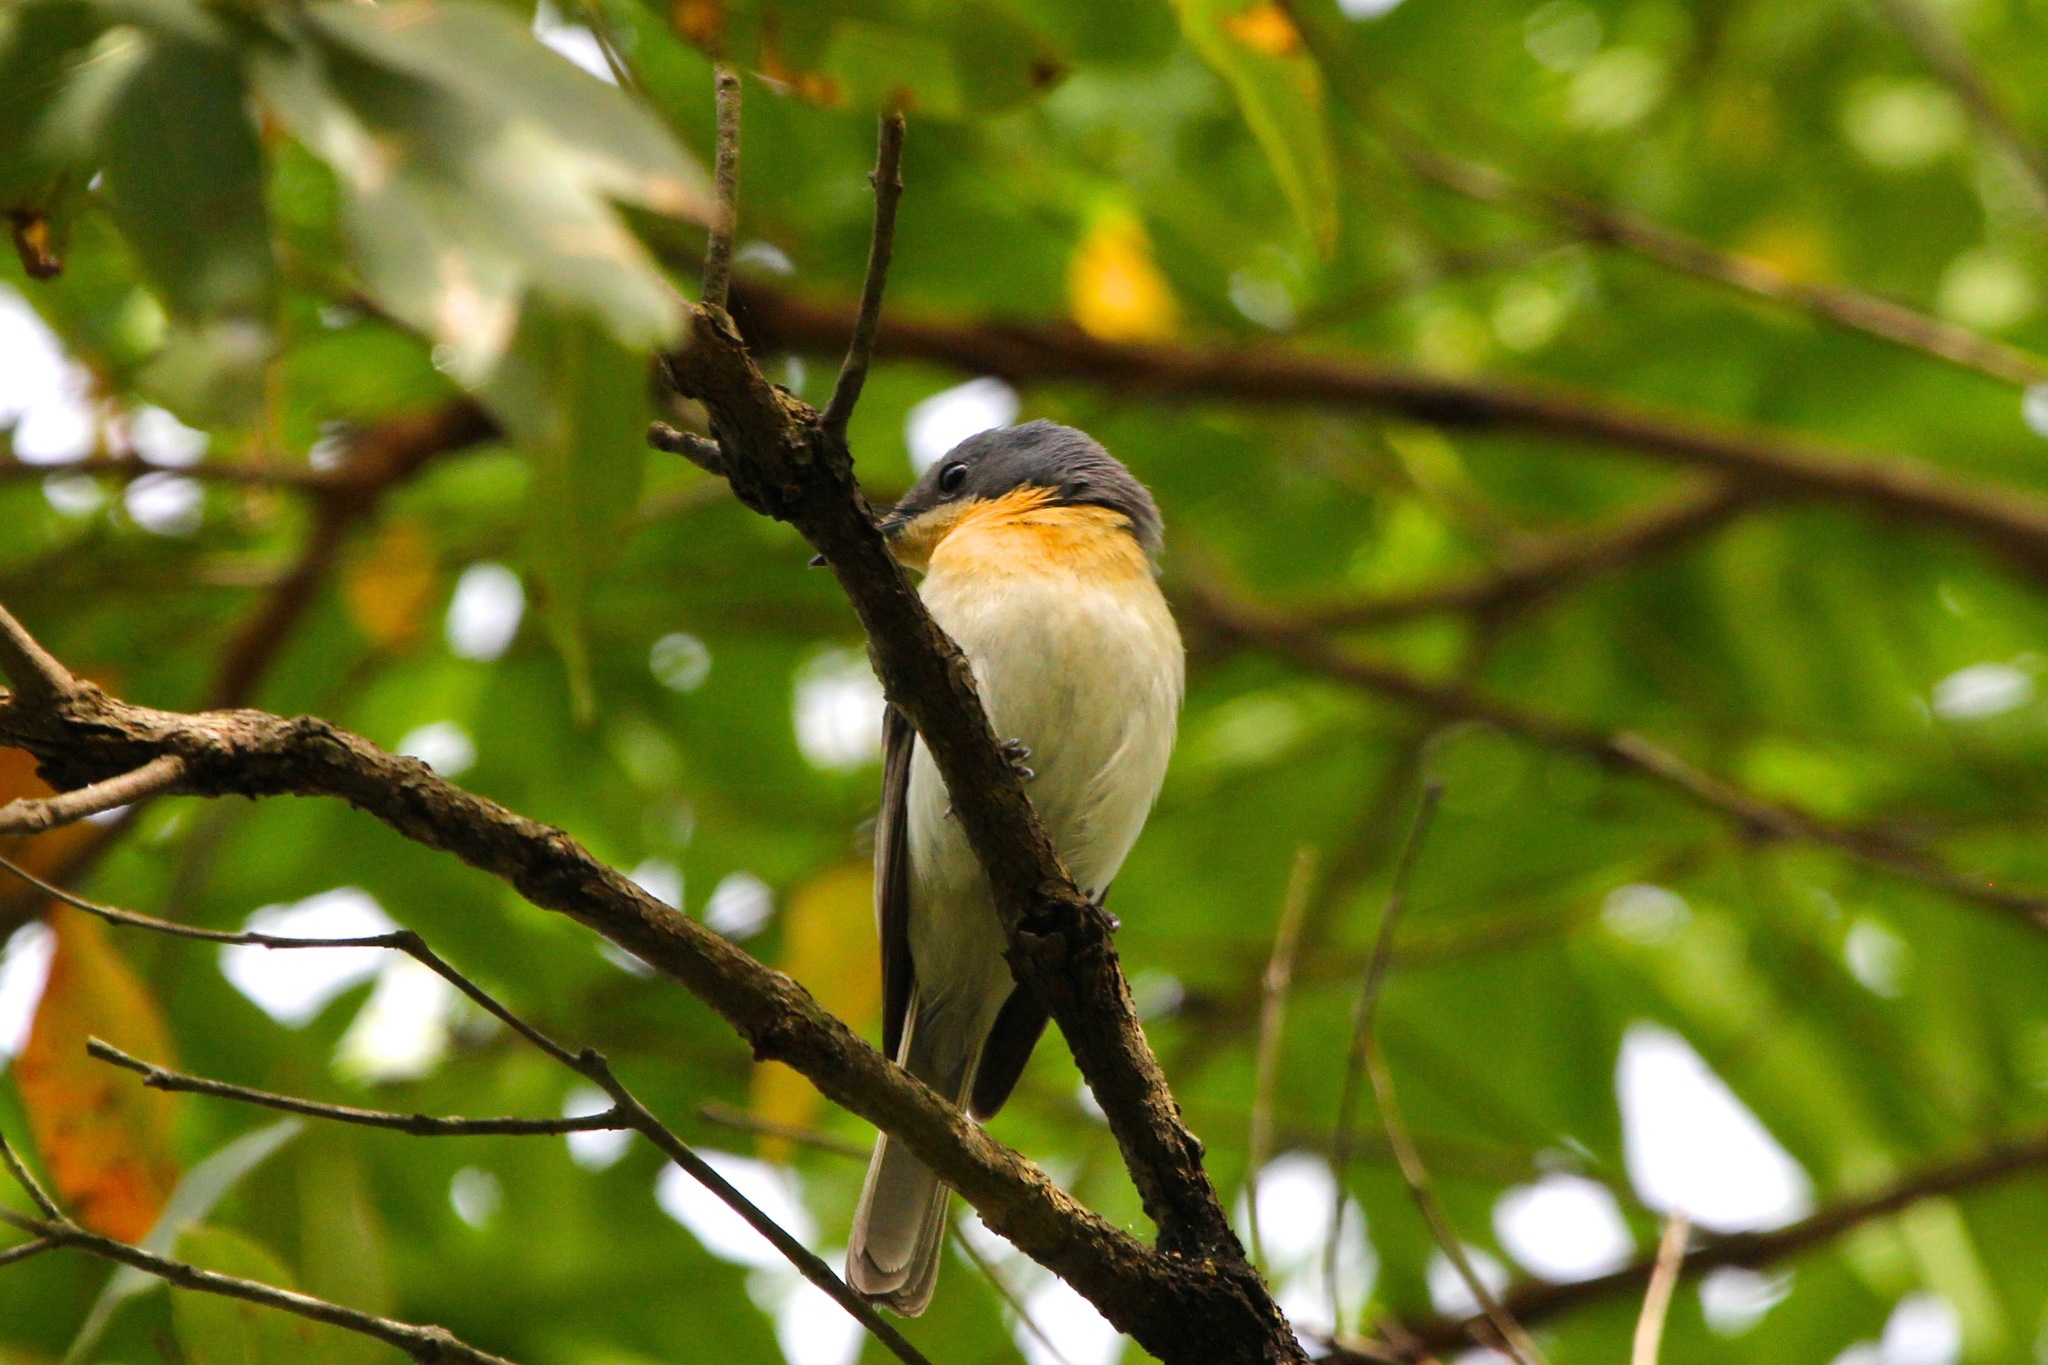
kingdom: Animalia
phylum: Chordata
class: Aves
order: Passeriformes
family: Monarchidae
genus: Myiagra
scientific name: Myiagra rubecula
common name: Leaden flycatcher
